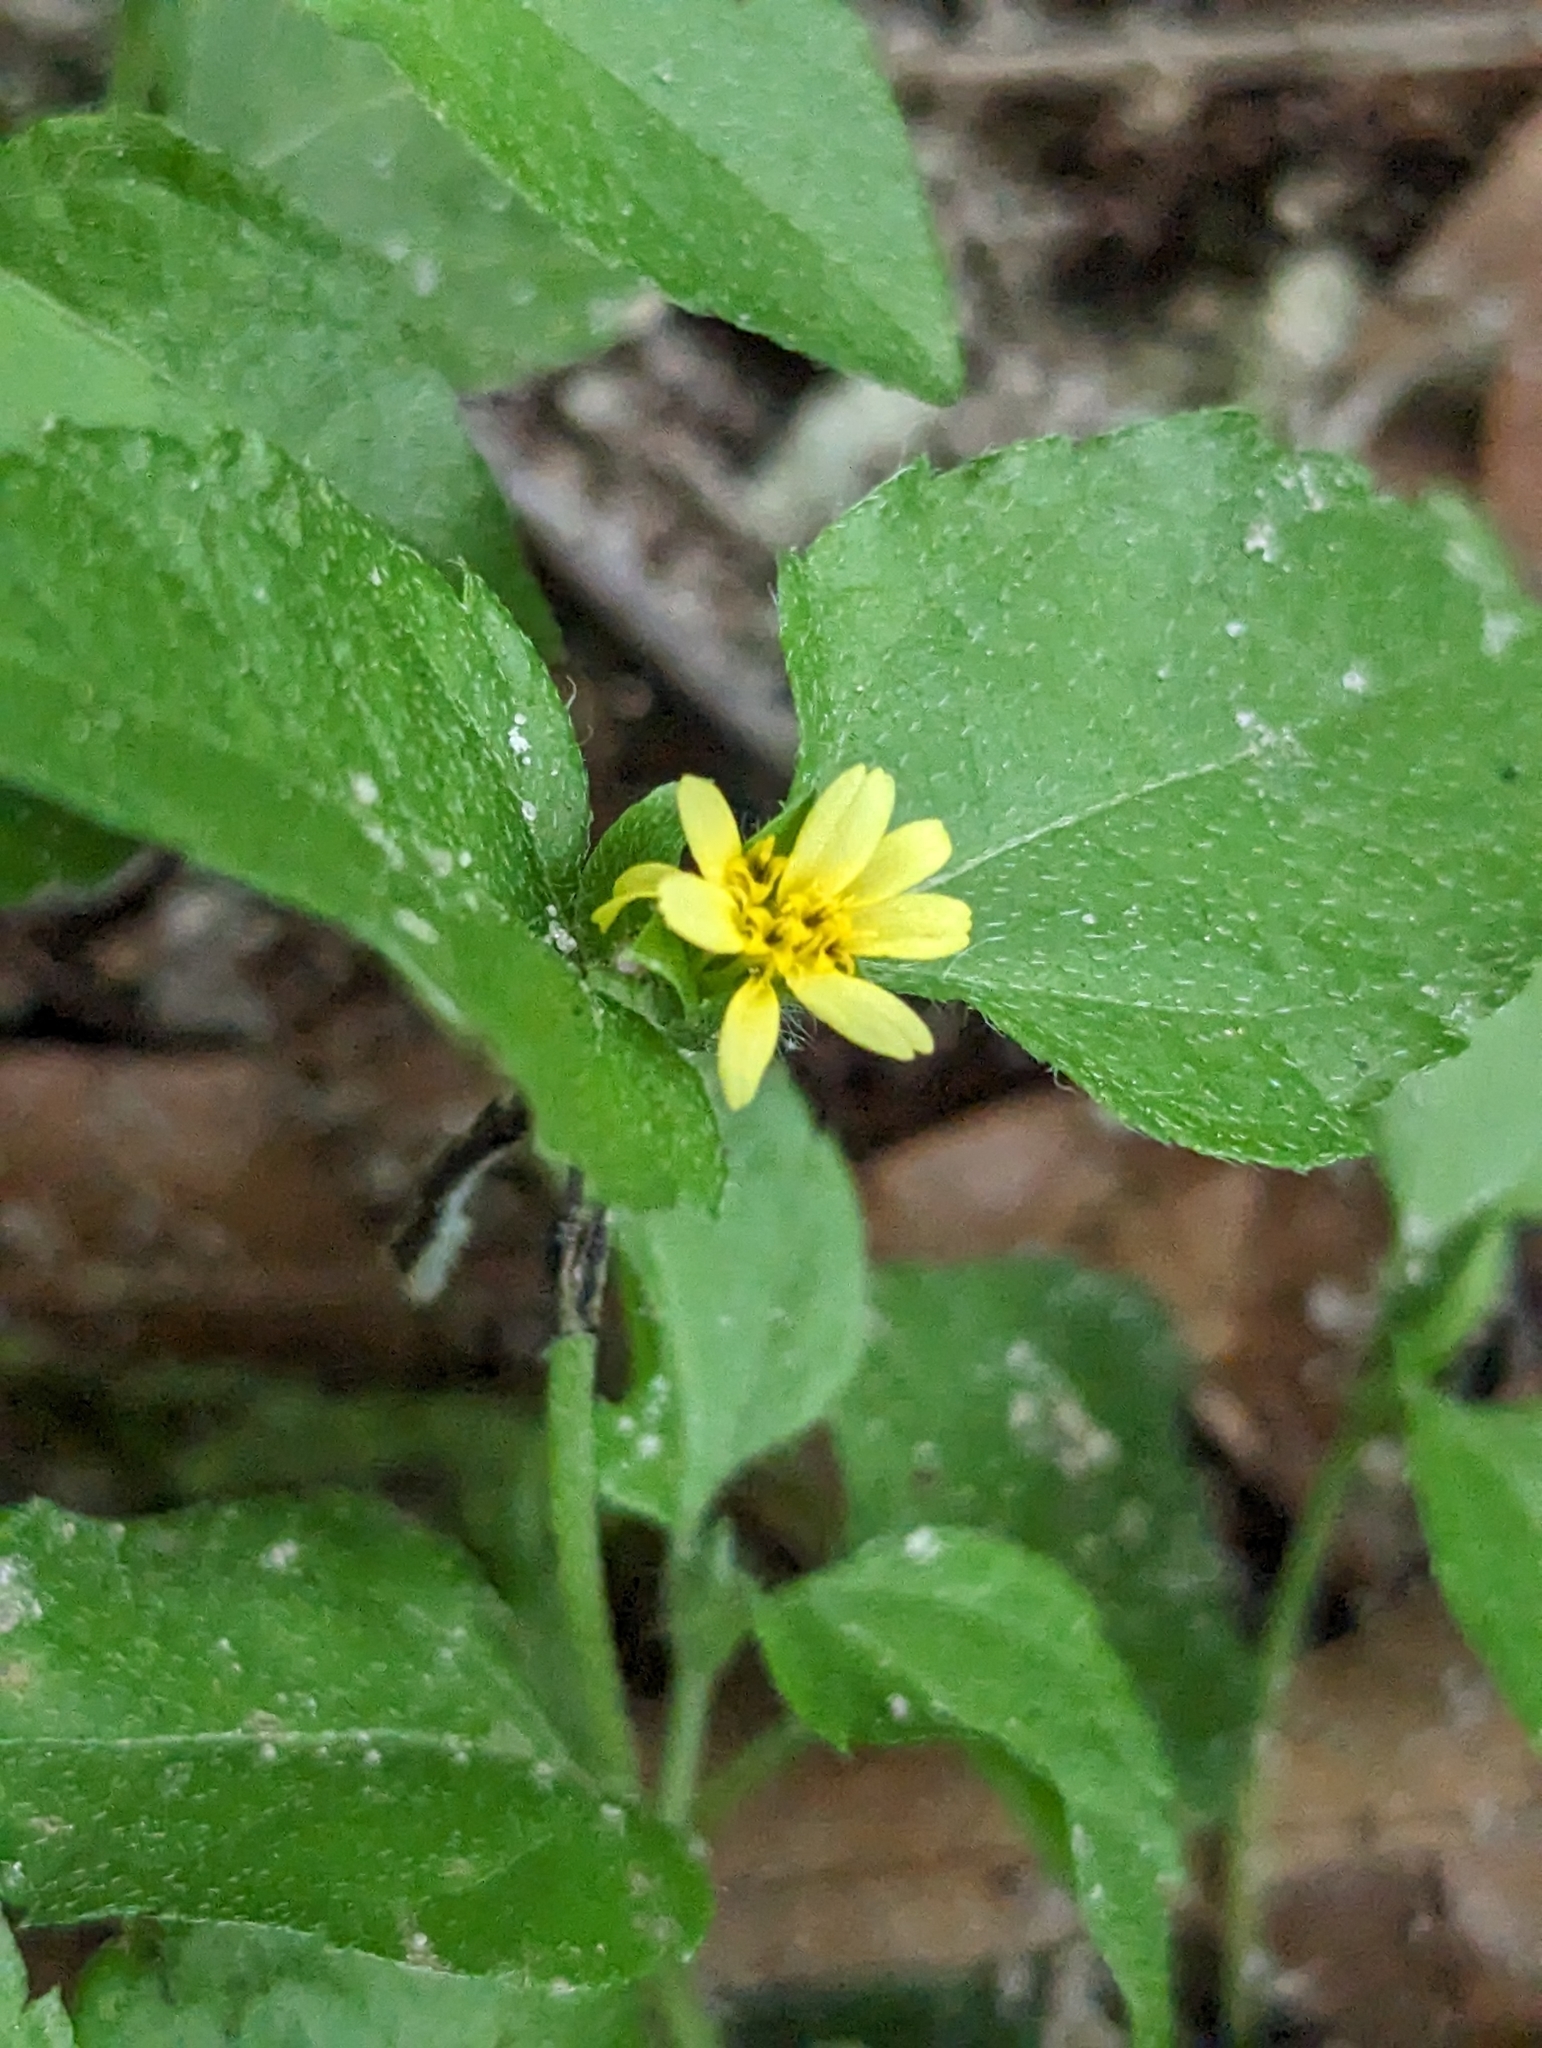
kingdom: Plantae
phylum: Tracheophyta
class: Magnoliopsida
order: Asterales
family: Asteraceae
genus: Calyptocarpus
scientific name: Calyptocarpus vialis
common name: Straggler daisy
